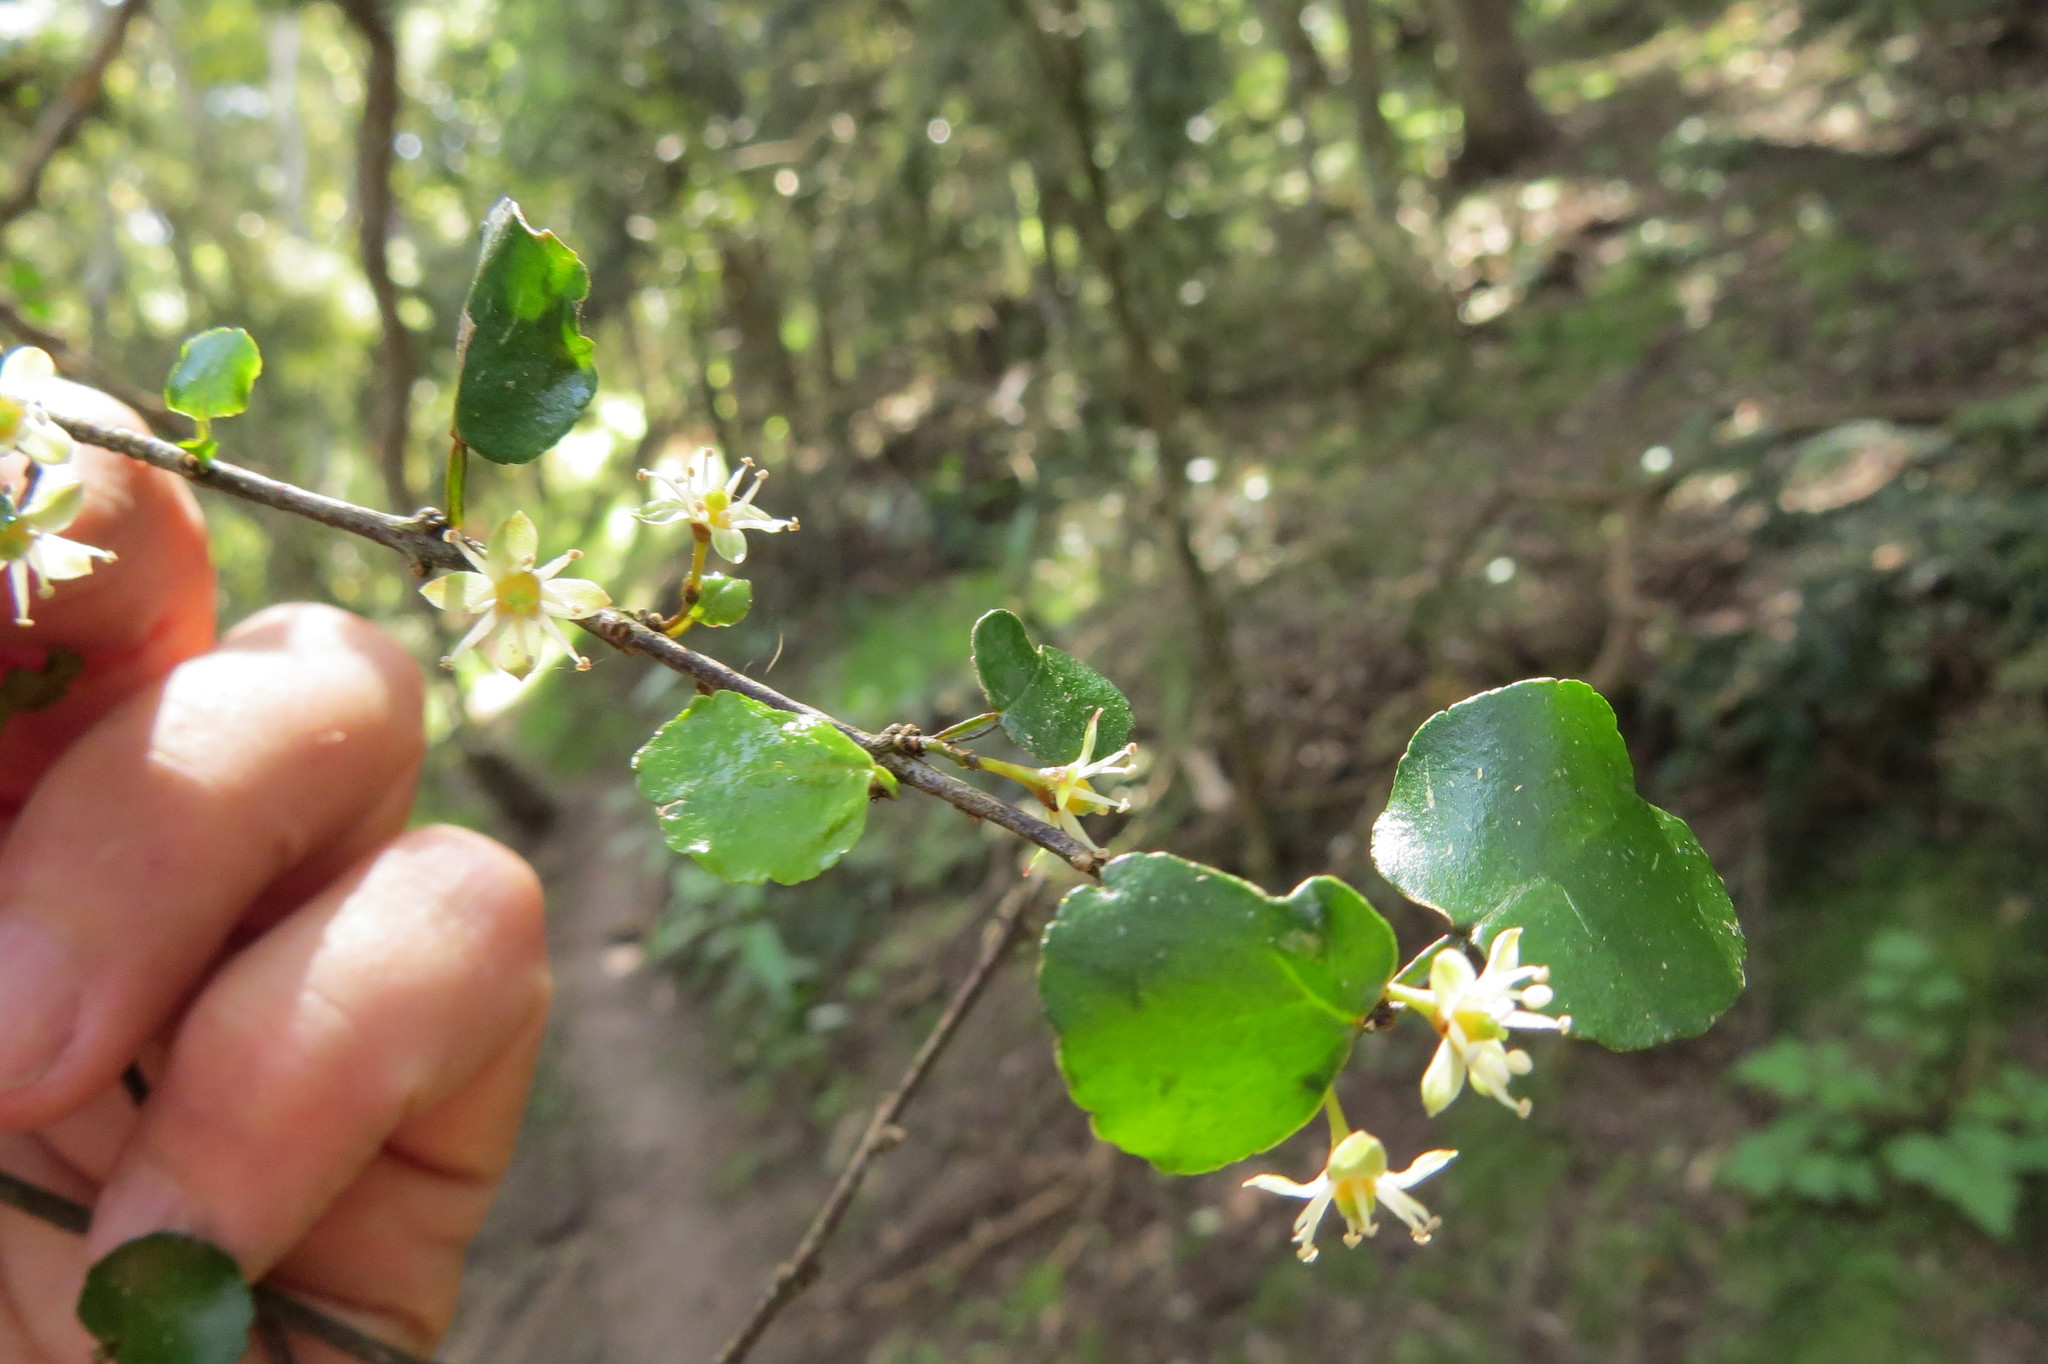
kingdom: Plantae
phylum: Tracheophyta
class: Magnoliopsida
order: Sapindales
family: Rutaceae
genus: Melicope
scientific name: Melicope simplex
